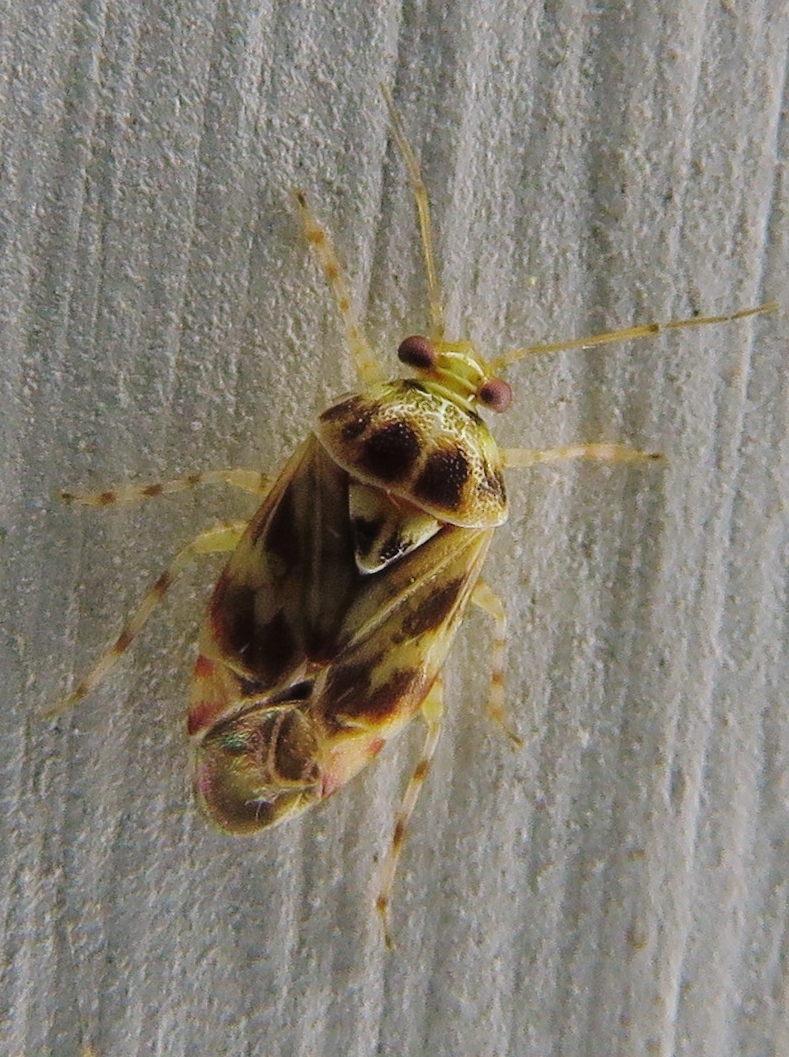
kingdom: Animalia
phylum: Arthropoda
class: Insecta
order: Hemiptera
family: Miridae
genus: Tropidosteptes
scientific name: Tropidosteptes quercicola
